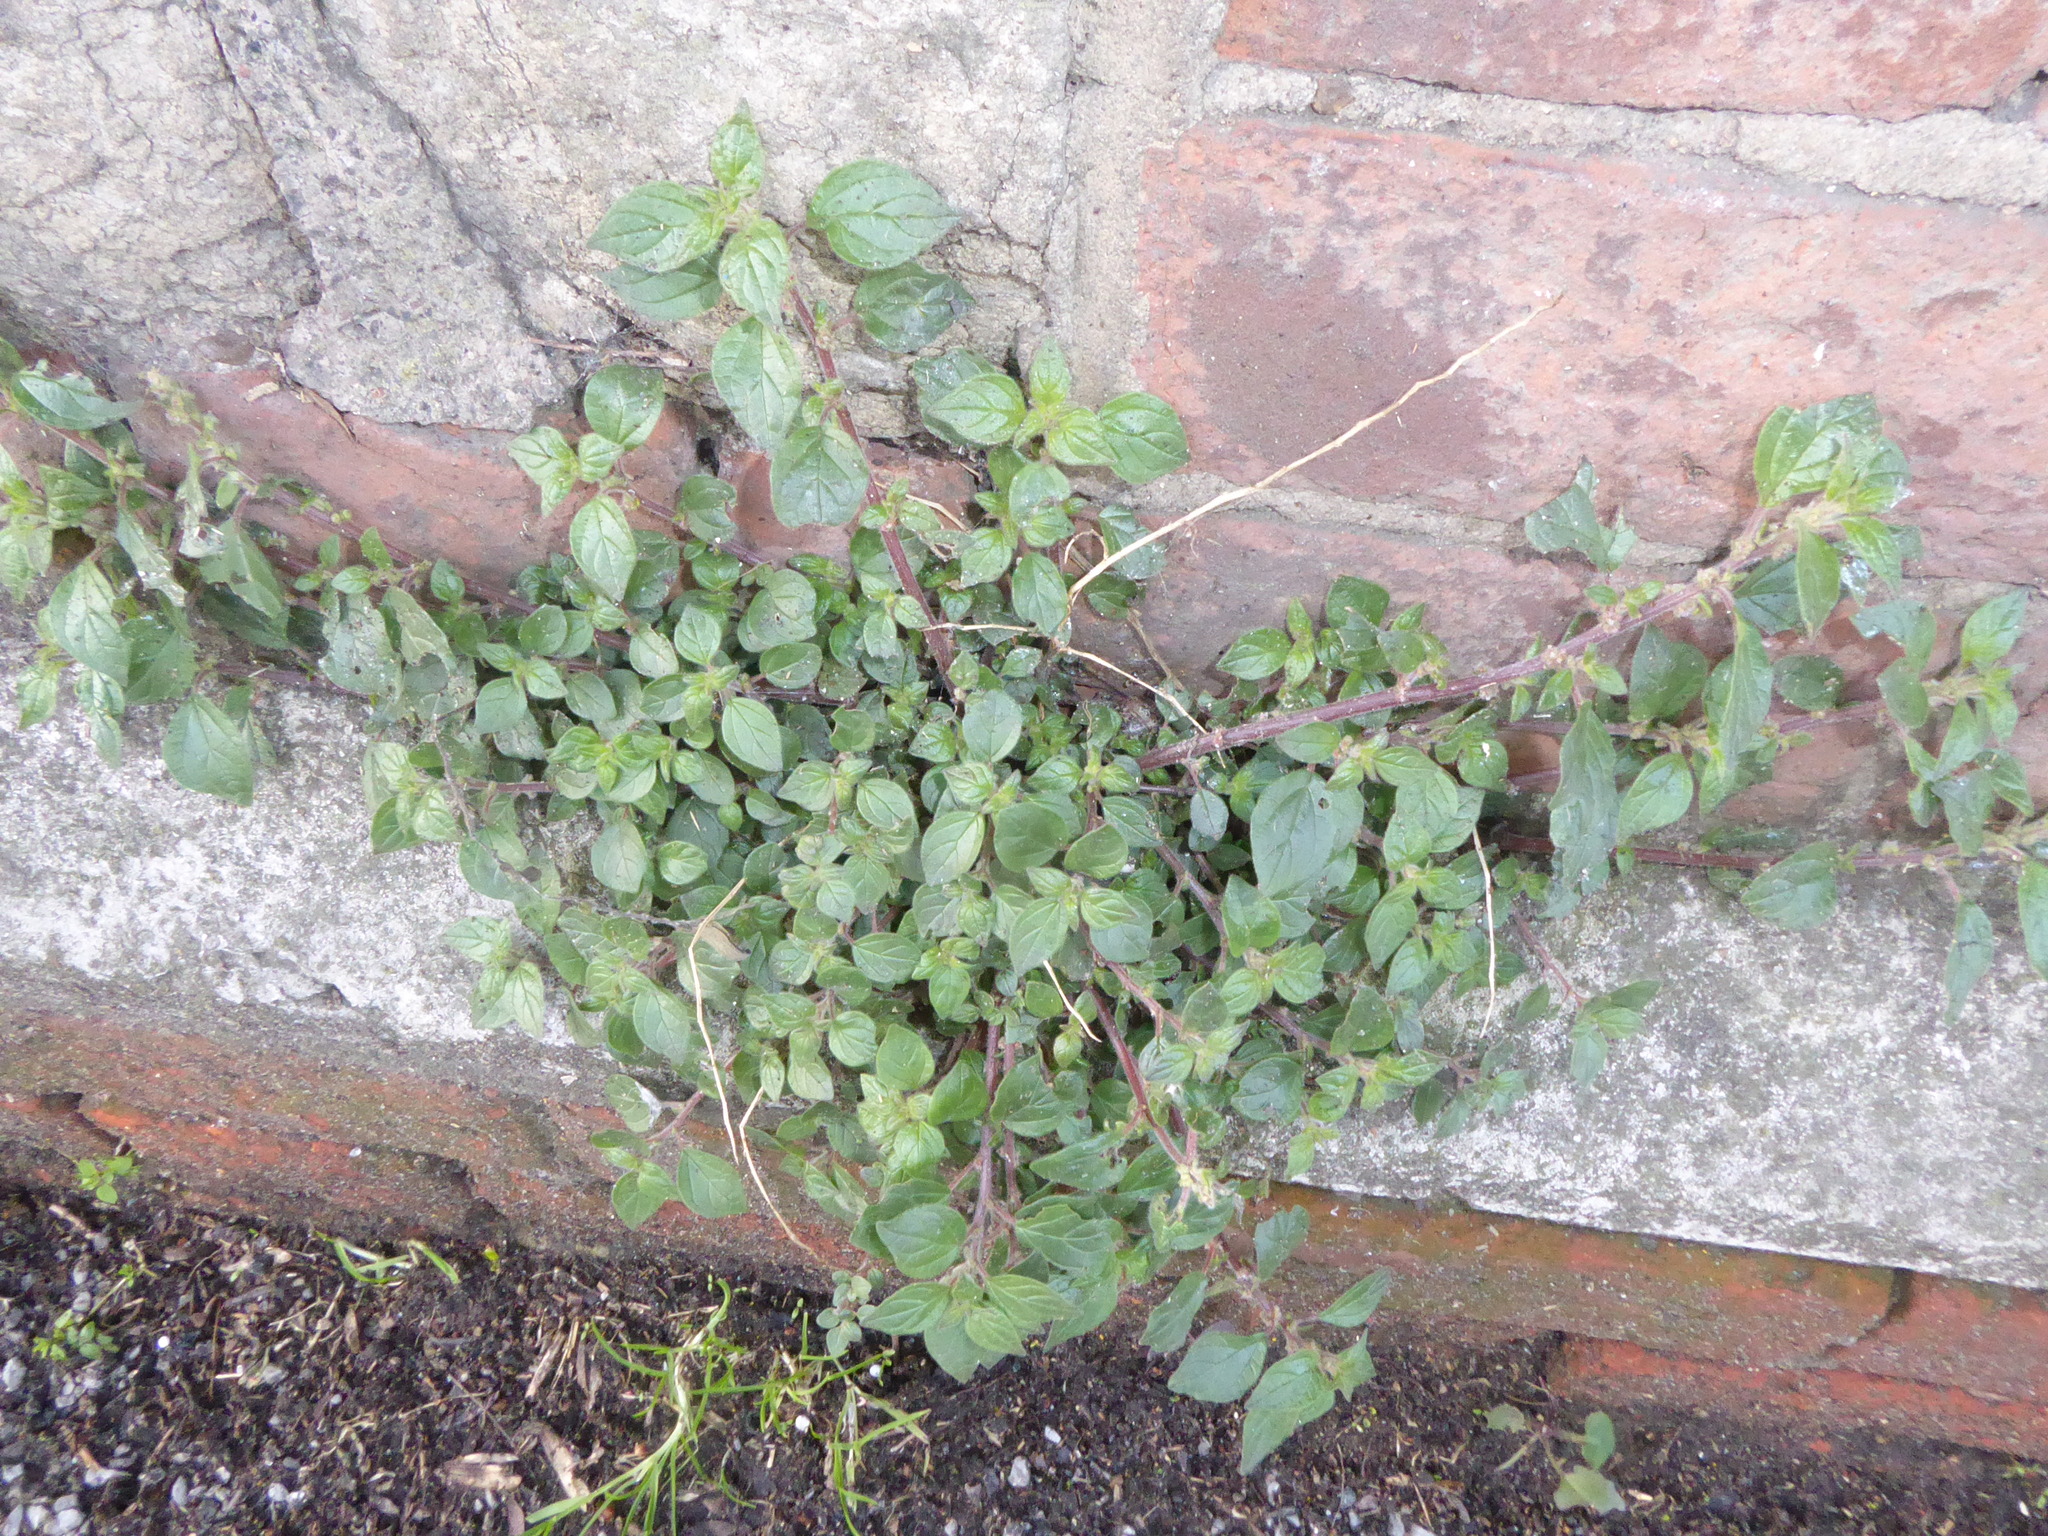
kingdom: Plantae
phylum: Tracheophyta
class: Magnoliopsida
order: Rosales
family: Urticaceae
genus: Parietaria
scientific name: Parietaria judaica
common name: Pellitory-of-the-wall
